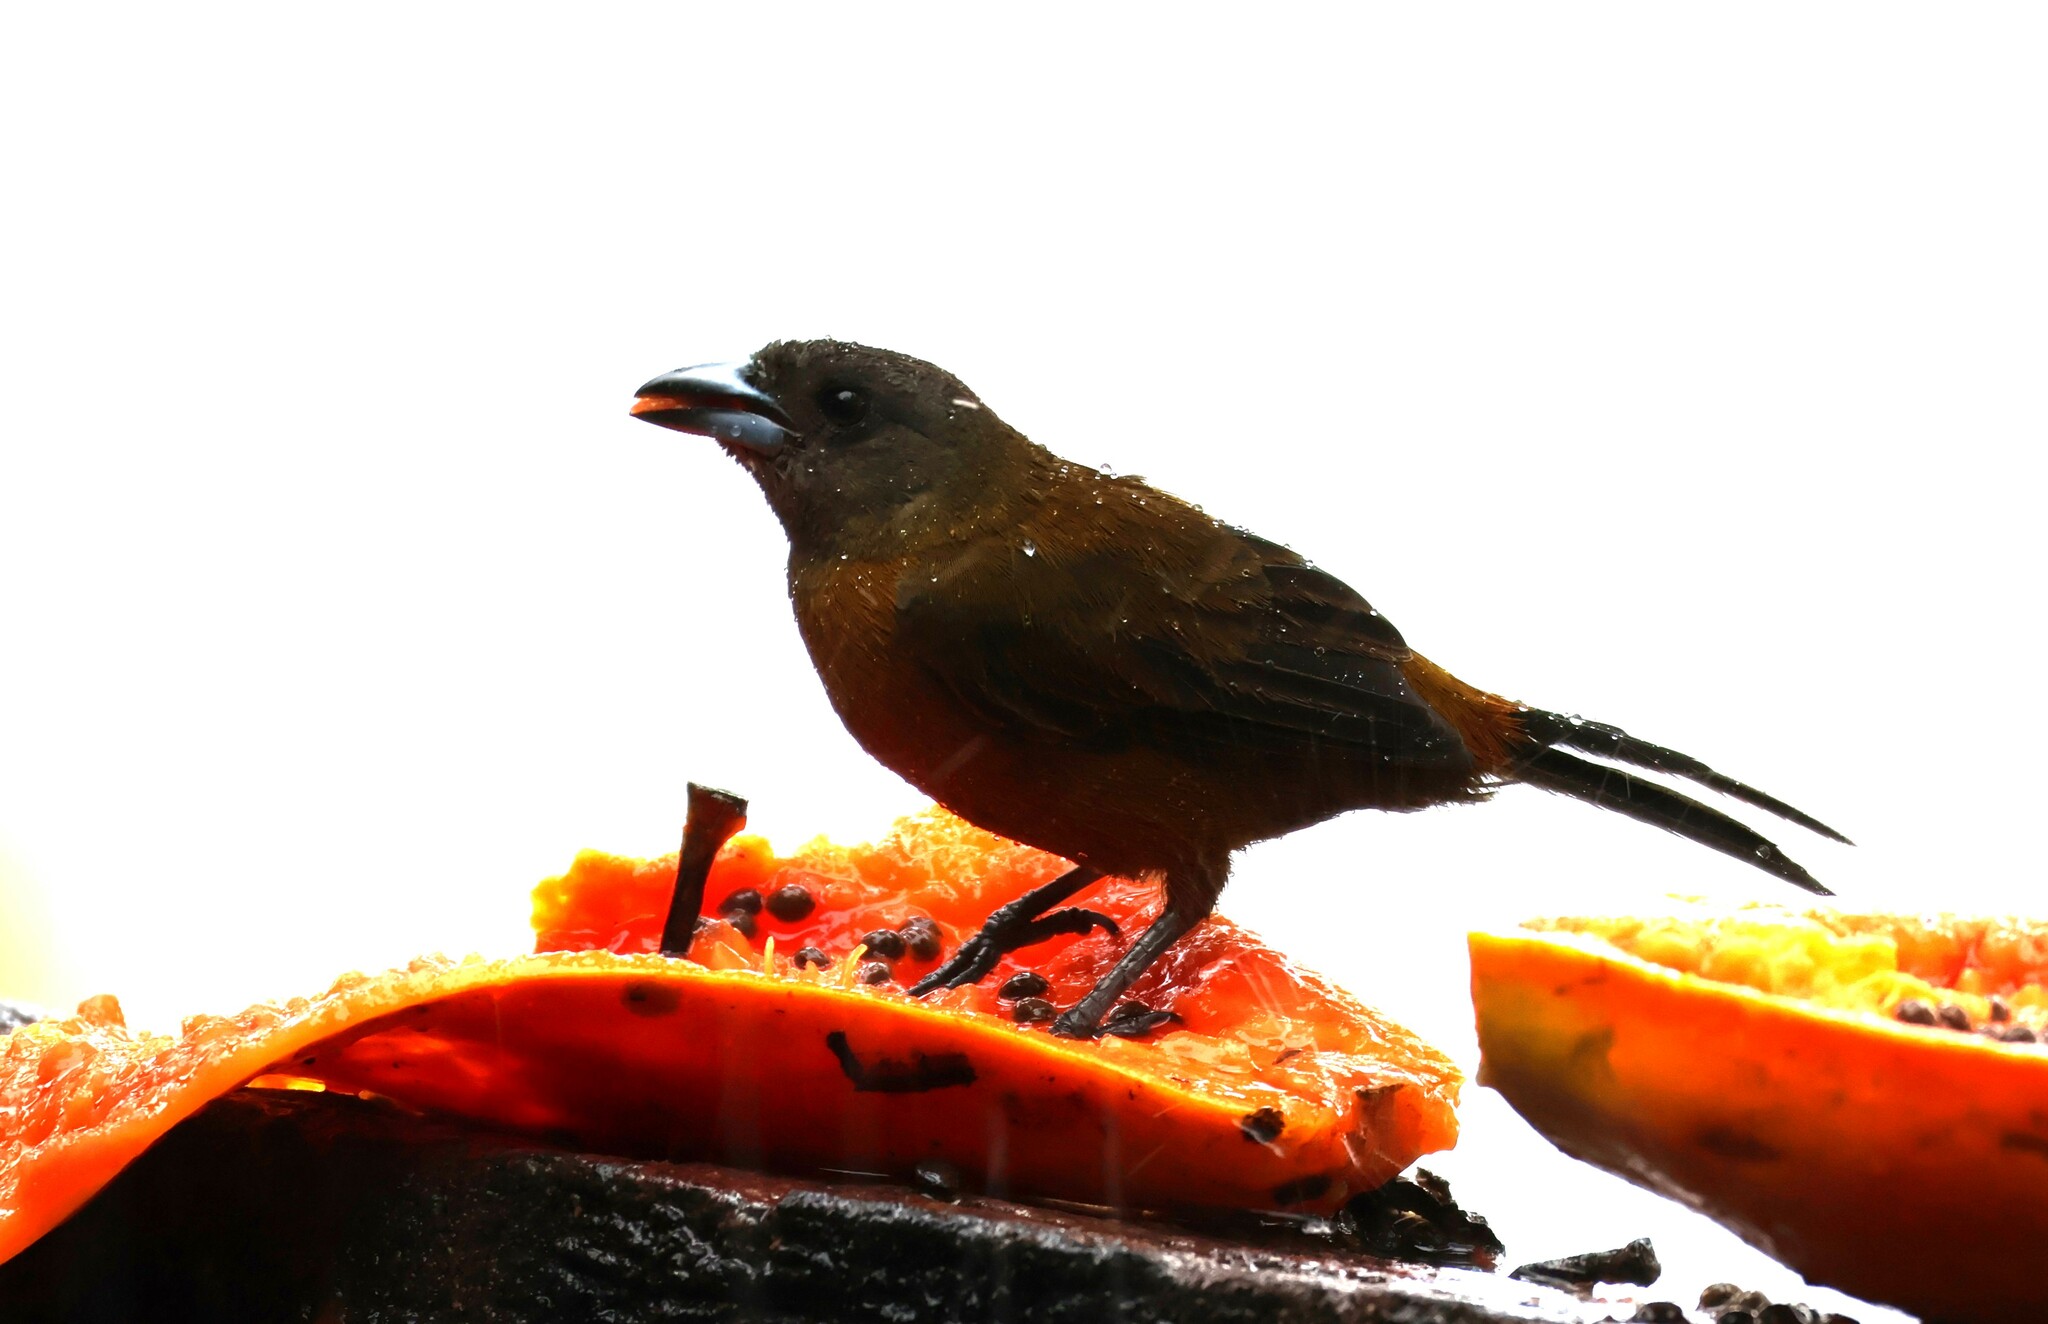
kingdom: Animalia
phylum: Chordata
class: Aves
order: Passeriformes
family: Thraupidae
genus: Ramphocelus
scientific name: Ramphocelus passerinii
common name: Passerini's tanager
